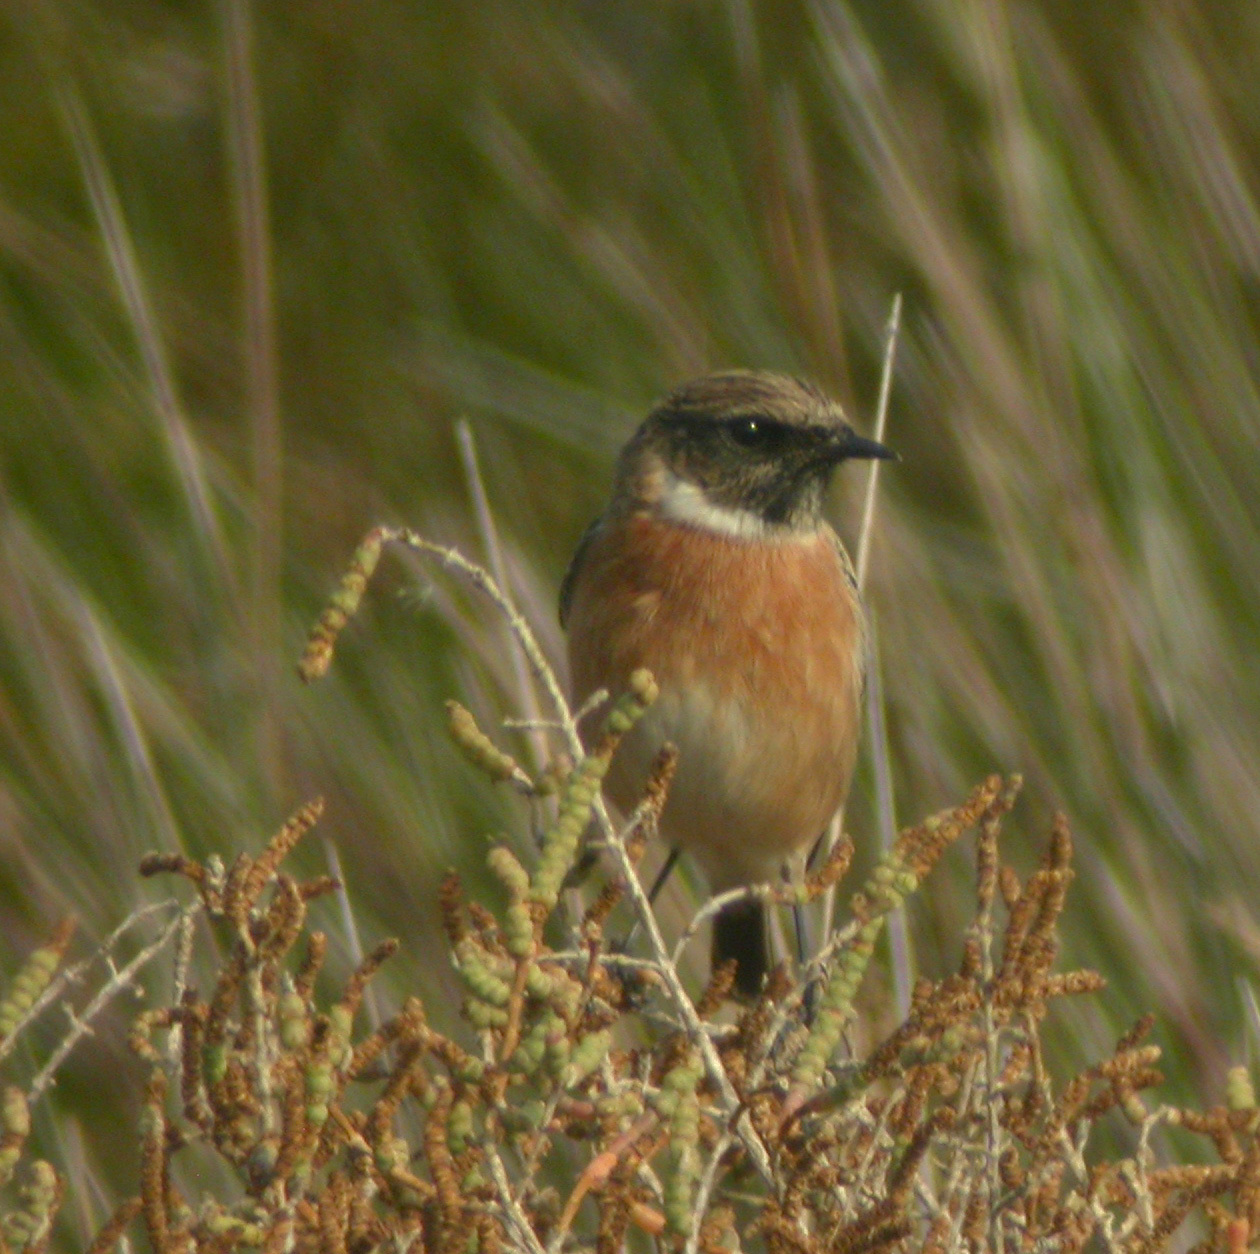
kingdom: Animalia
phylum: Chordata
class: Aves
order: Passeriformes
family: Muscicapidae
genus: Saxicola
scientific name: Saxicola rubicola
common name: European stonechat
